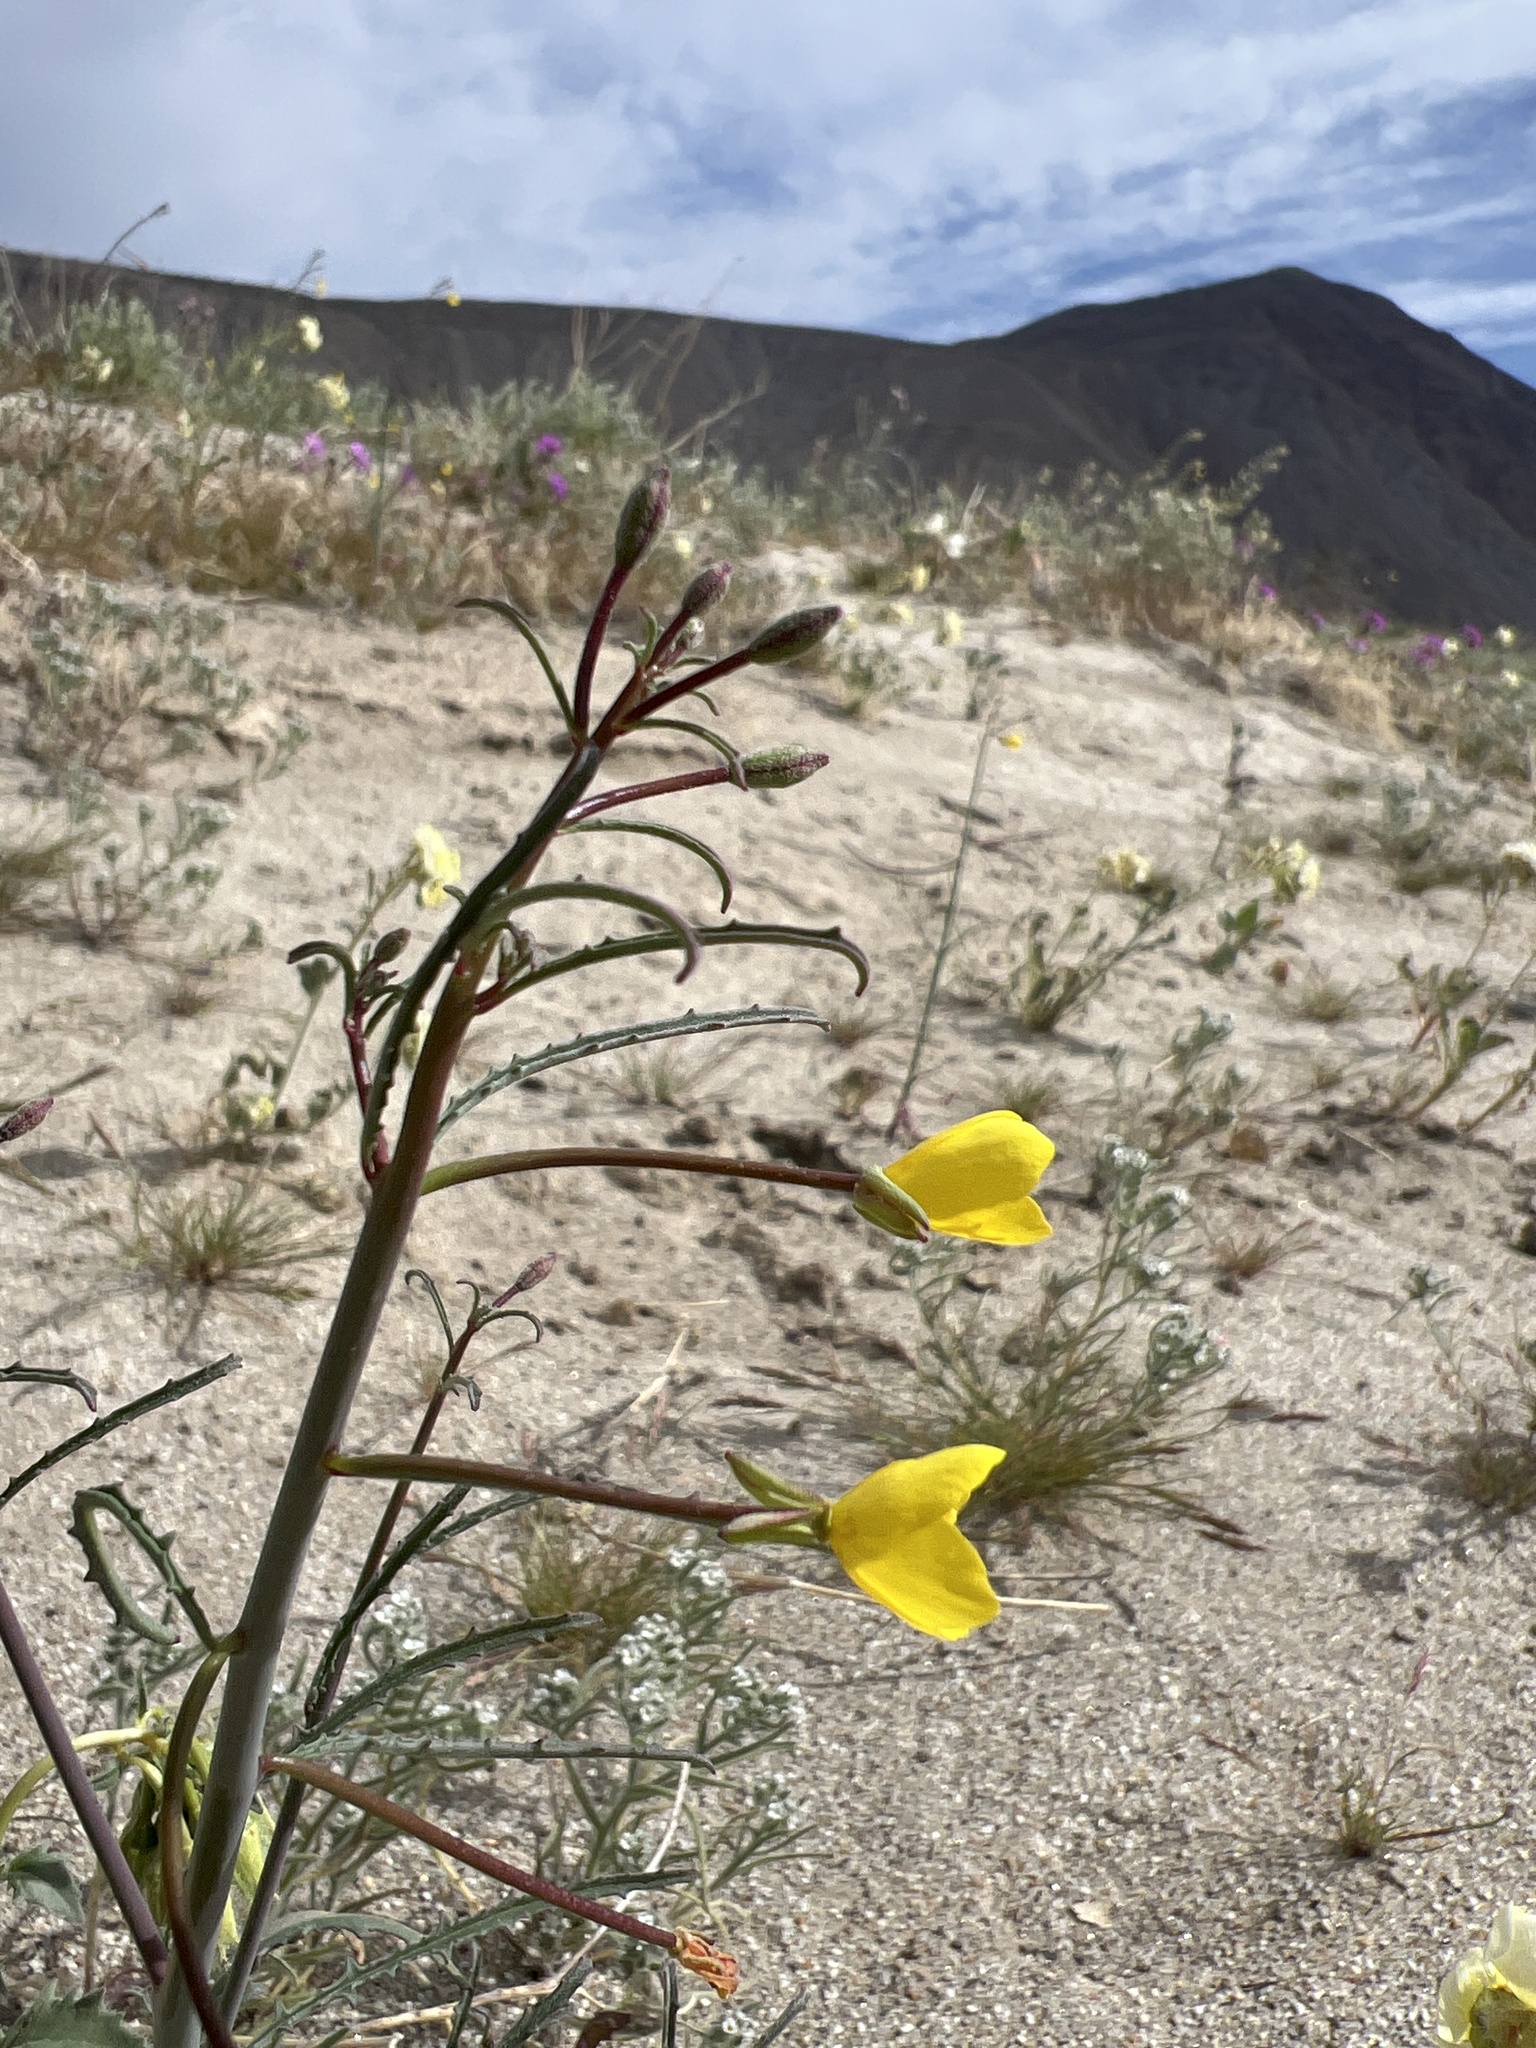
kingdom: Plantae
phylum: Tracheophyta
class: Magnoliopsida
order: Myrtales
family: Onagraceae
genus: Eulobus
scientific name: Eulobus californicus
